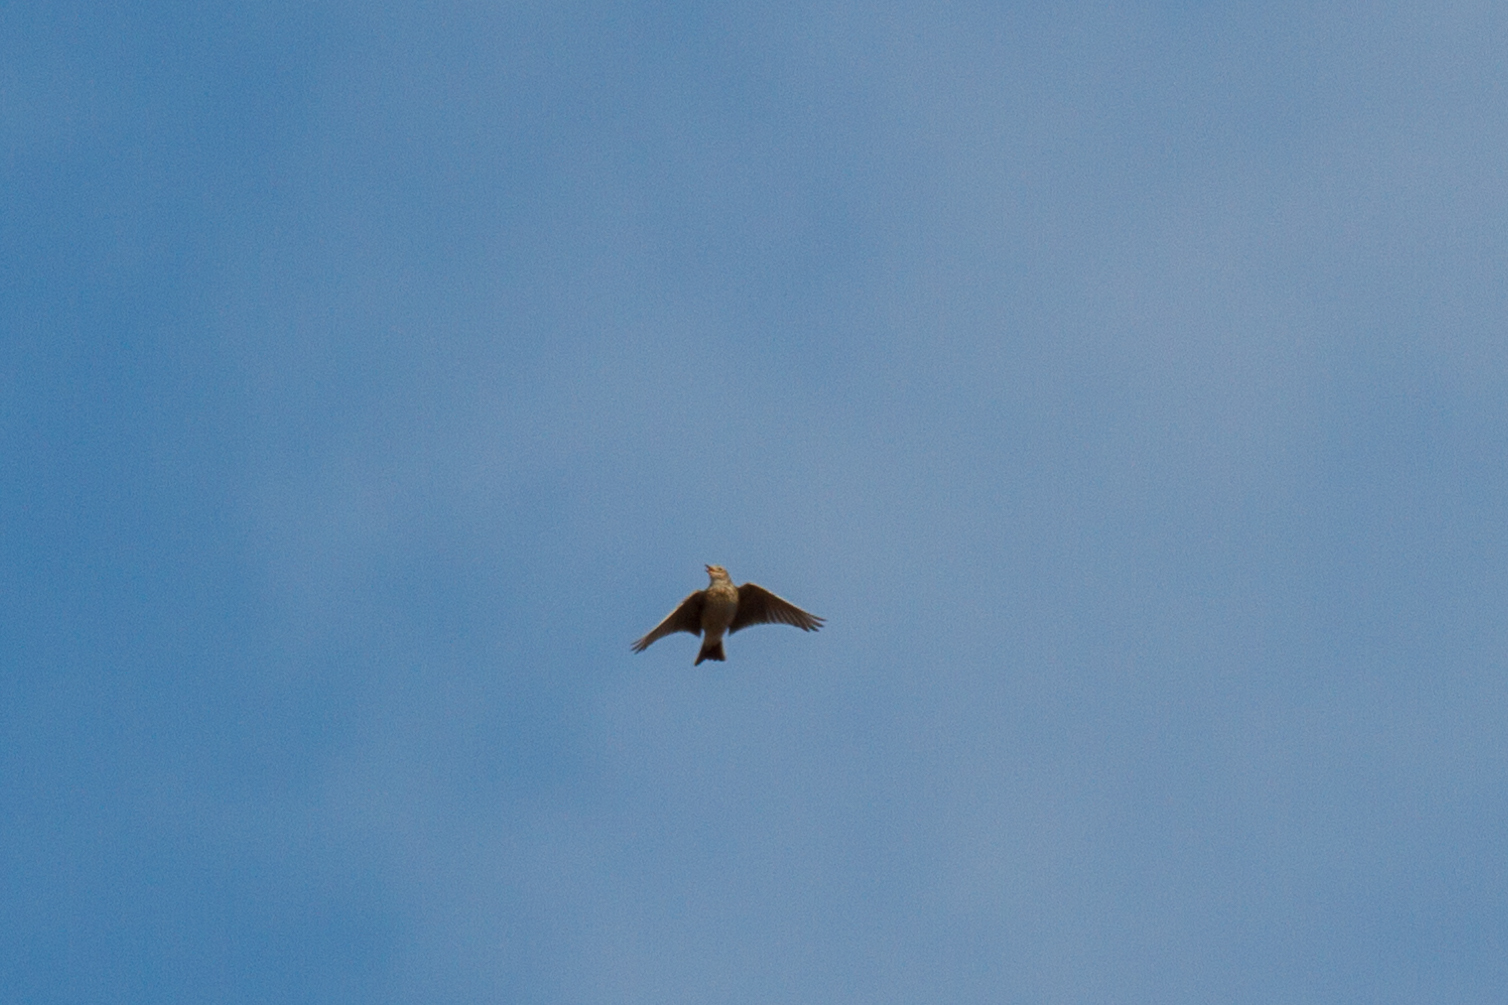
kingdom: Animalia
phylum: Chordata
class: Aves
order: Passeriformes
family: Alaudidae
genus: Alauda
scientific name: Alauda arvensis
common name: Eurasian skylark
